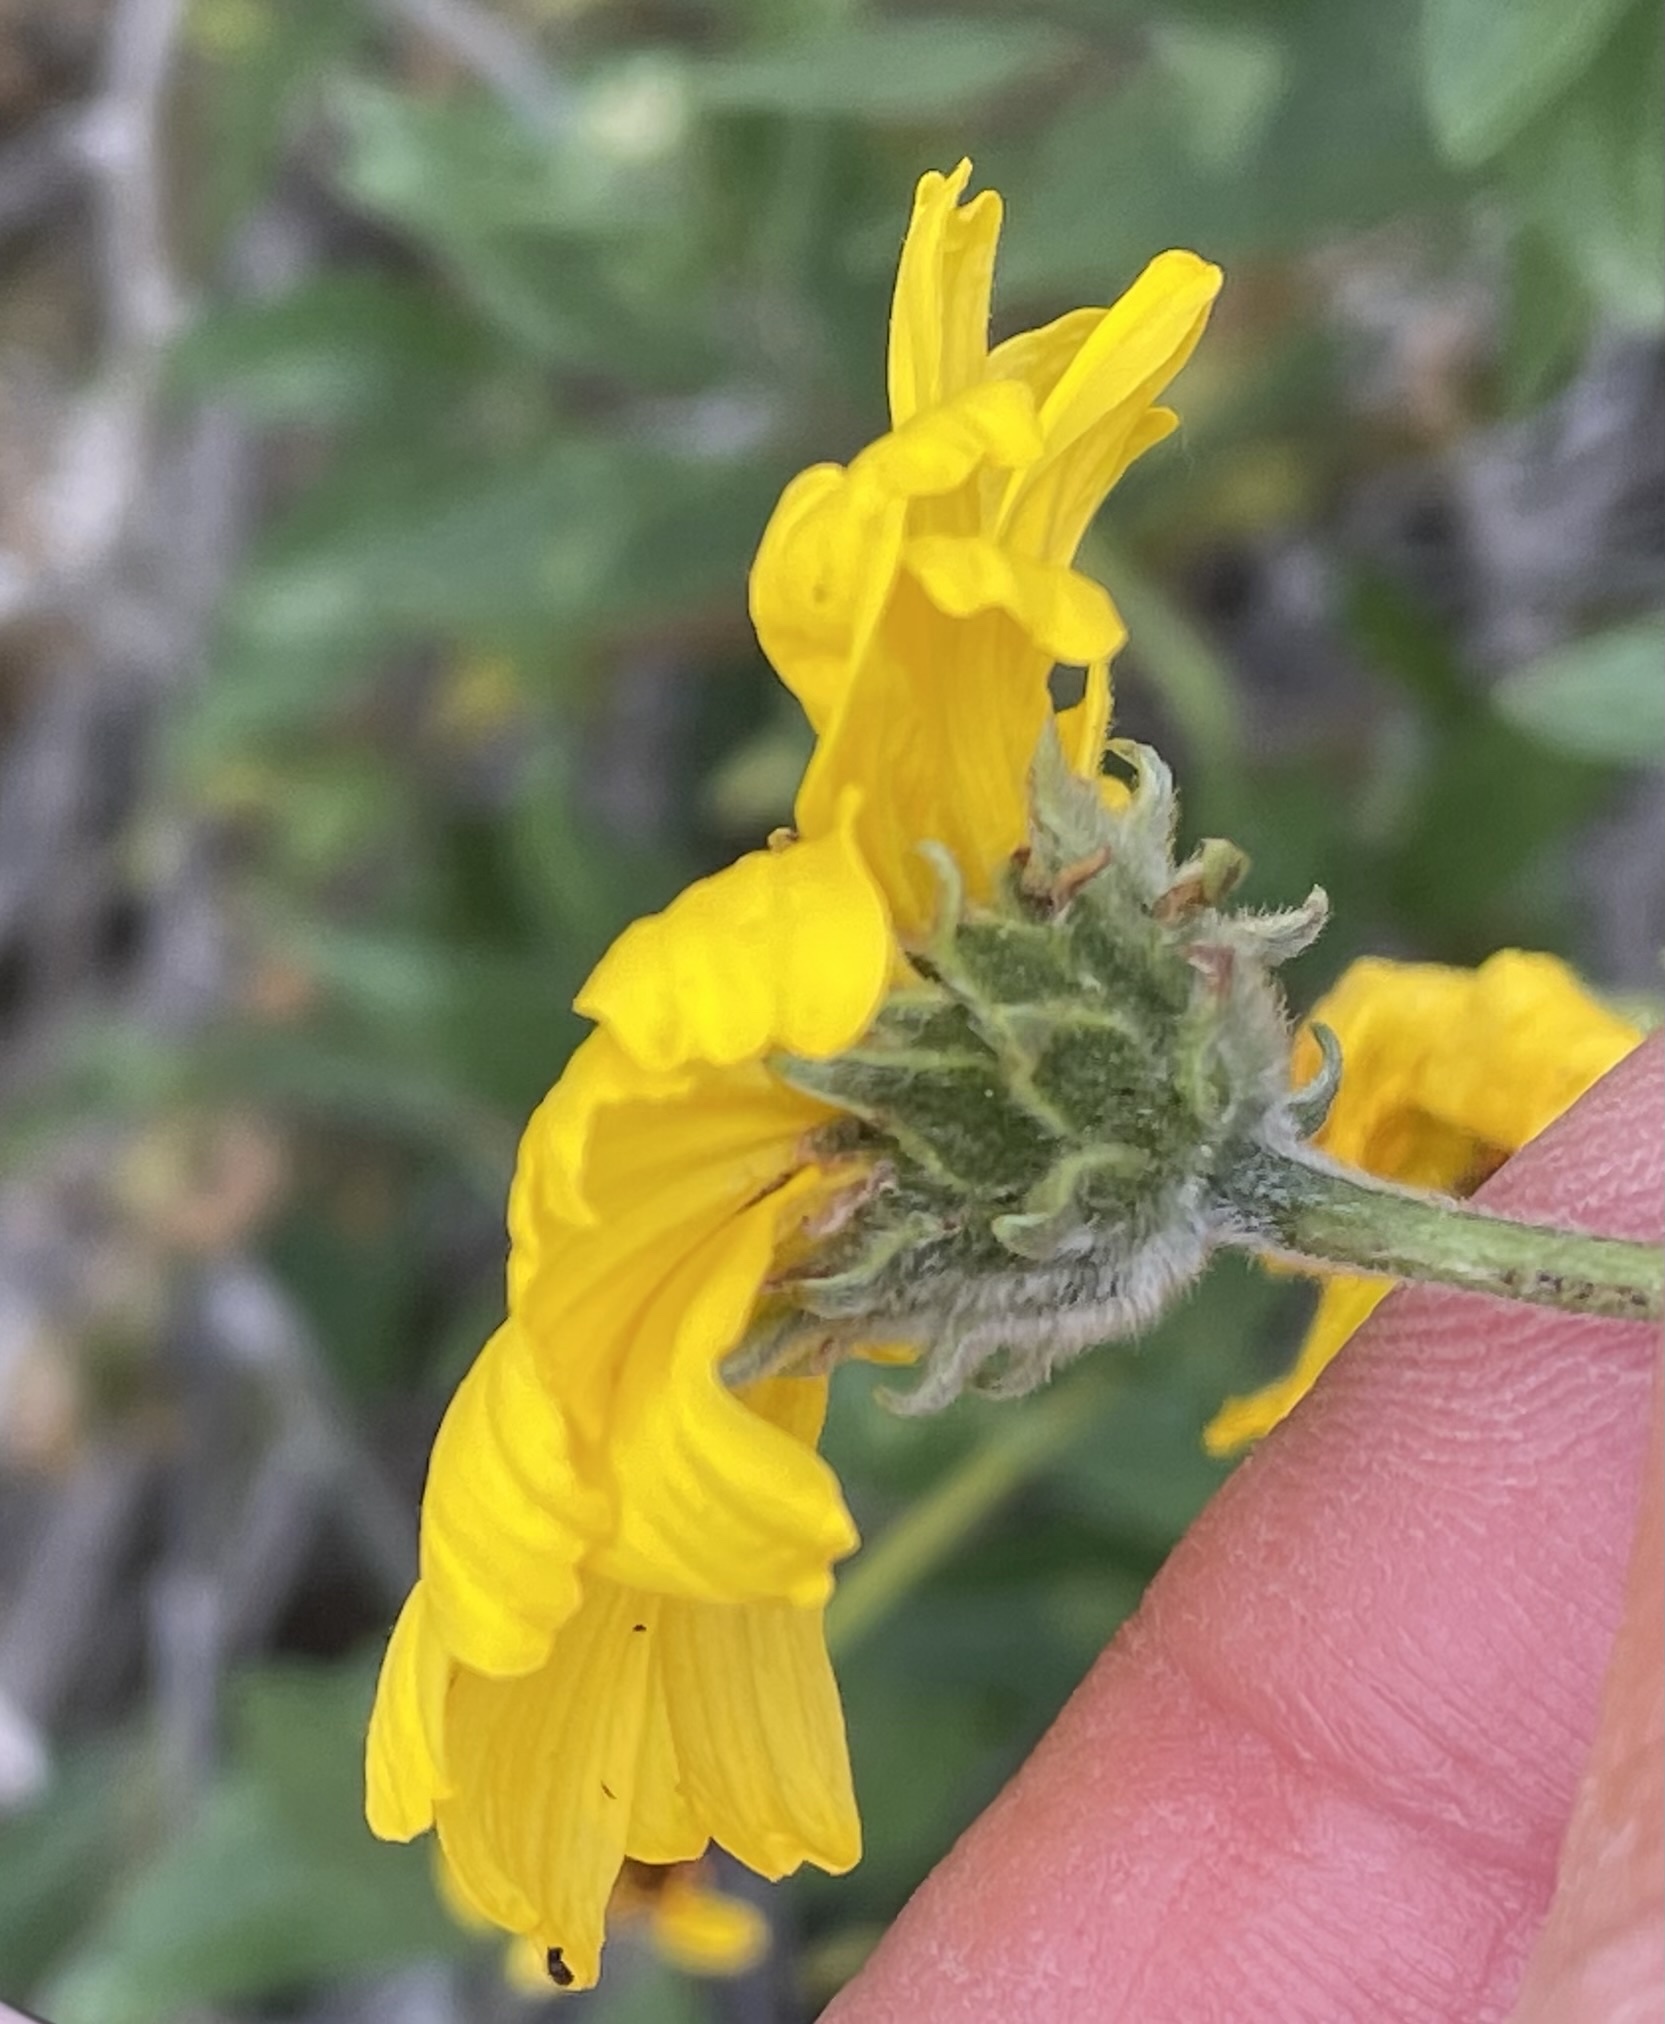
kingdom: Plantae
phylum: Tracheophyta
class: Magnoliopsida
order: Asterales
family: Asteraceae
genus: Encelia
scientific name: Encelia californica
